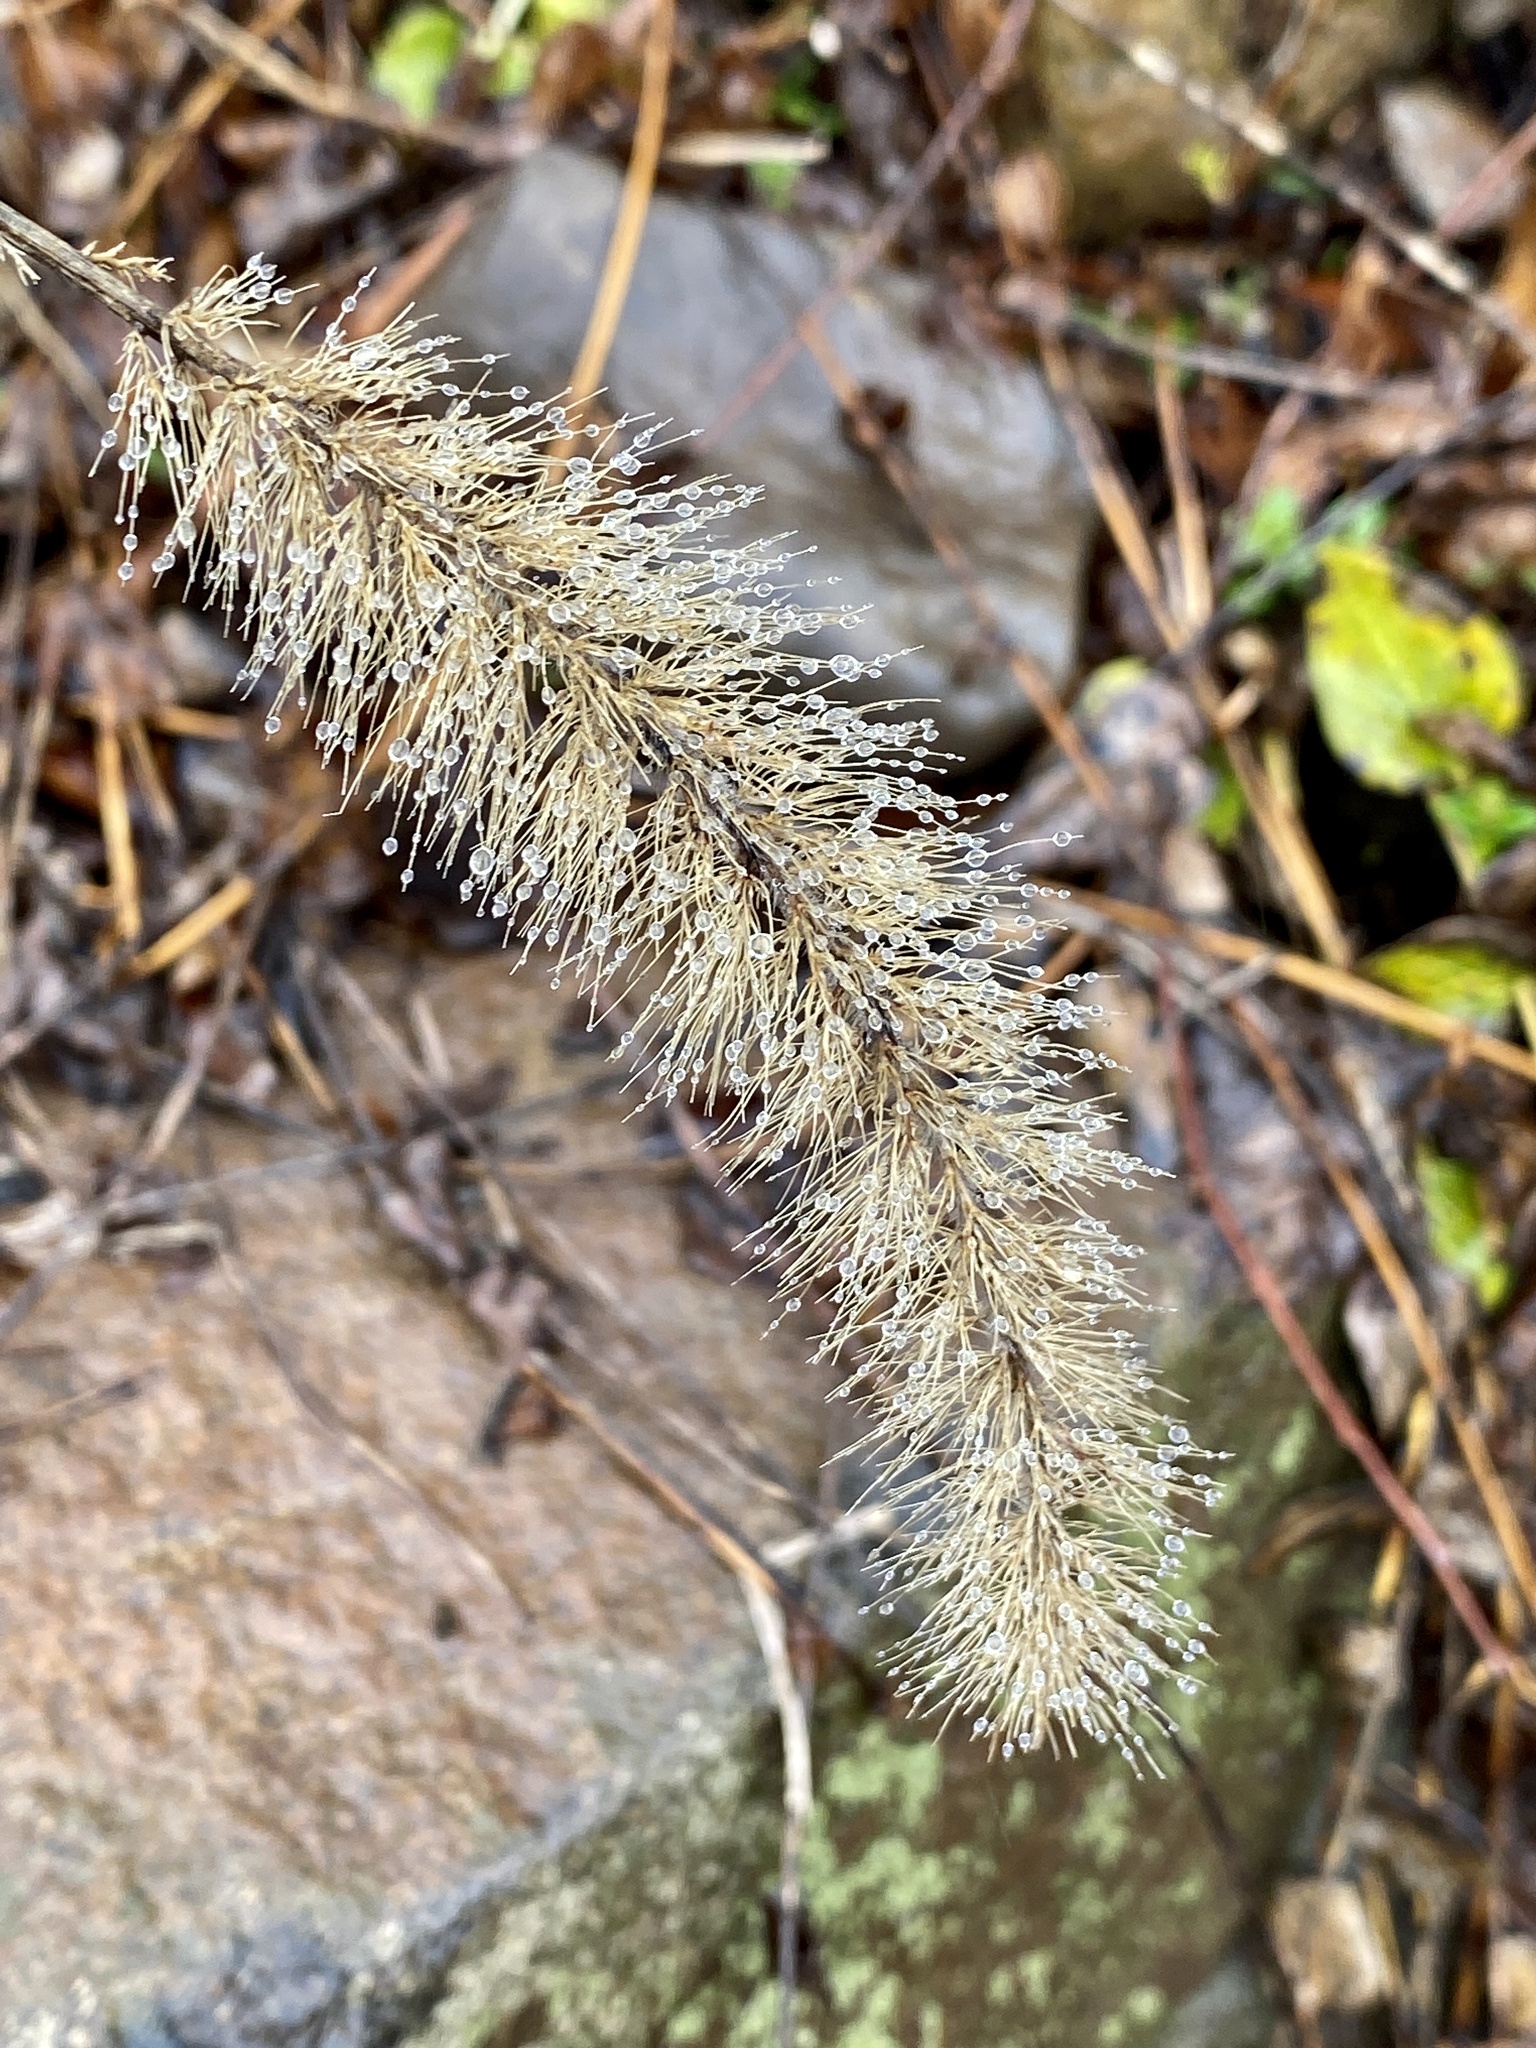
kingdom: Plantae
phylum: Tracheophyta
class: Liliopsida
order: Poales
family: Poaceae
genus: Setaria
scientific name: Setaria faberi
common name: Nodding bristle-grass
